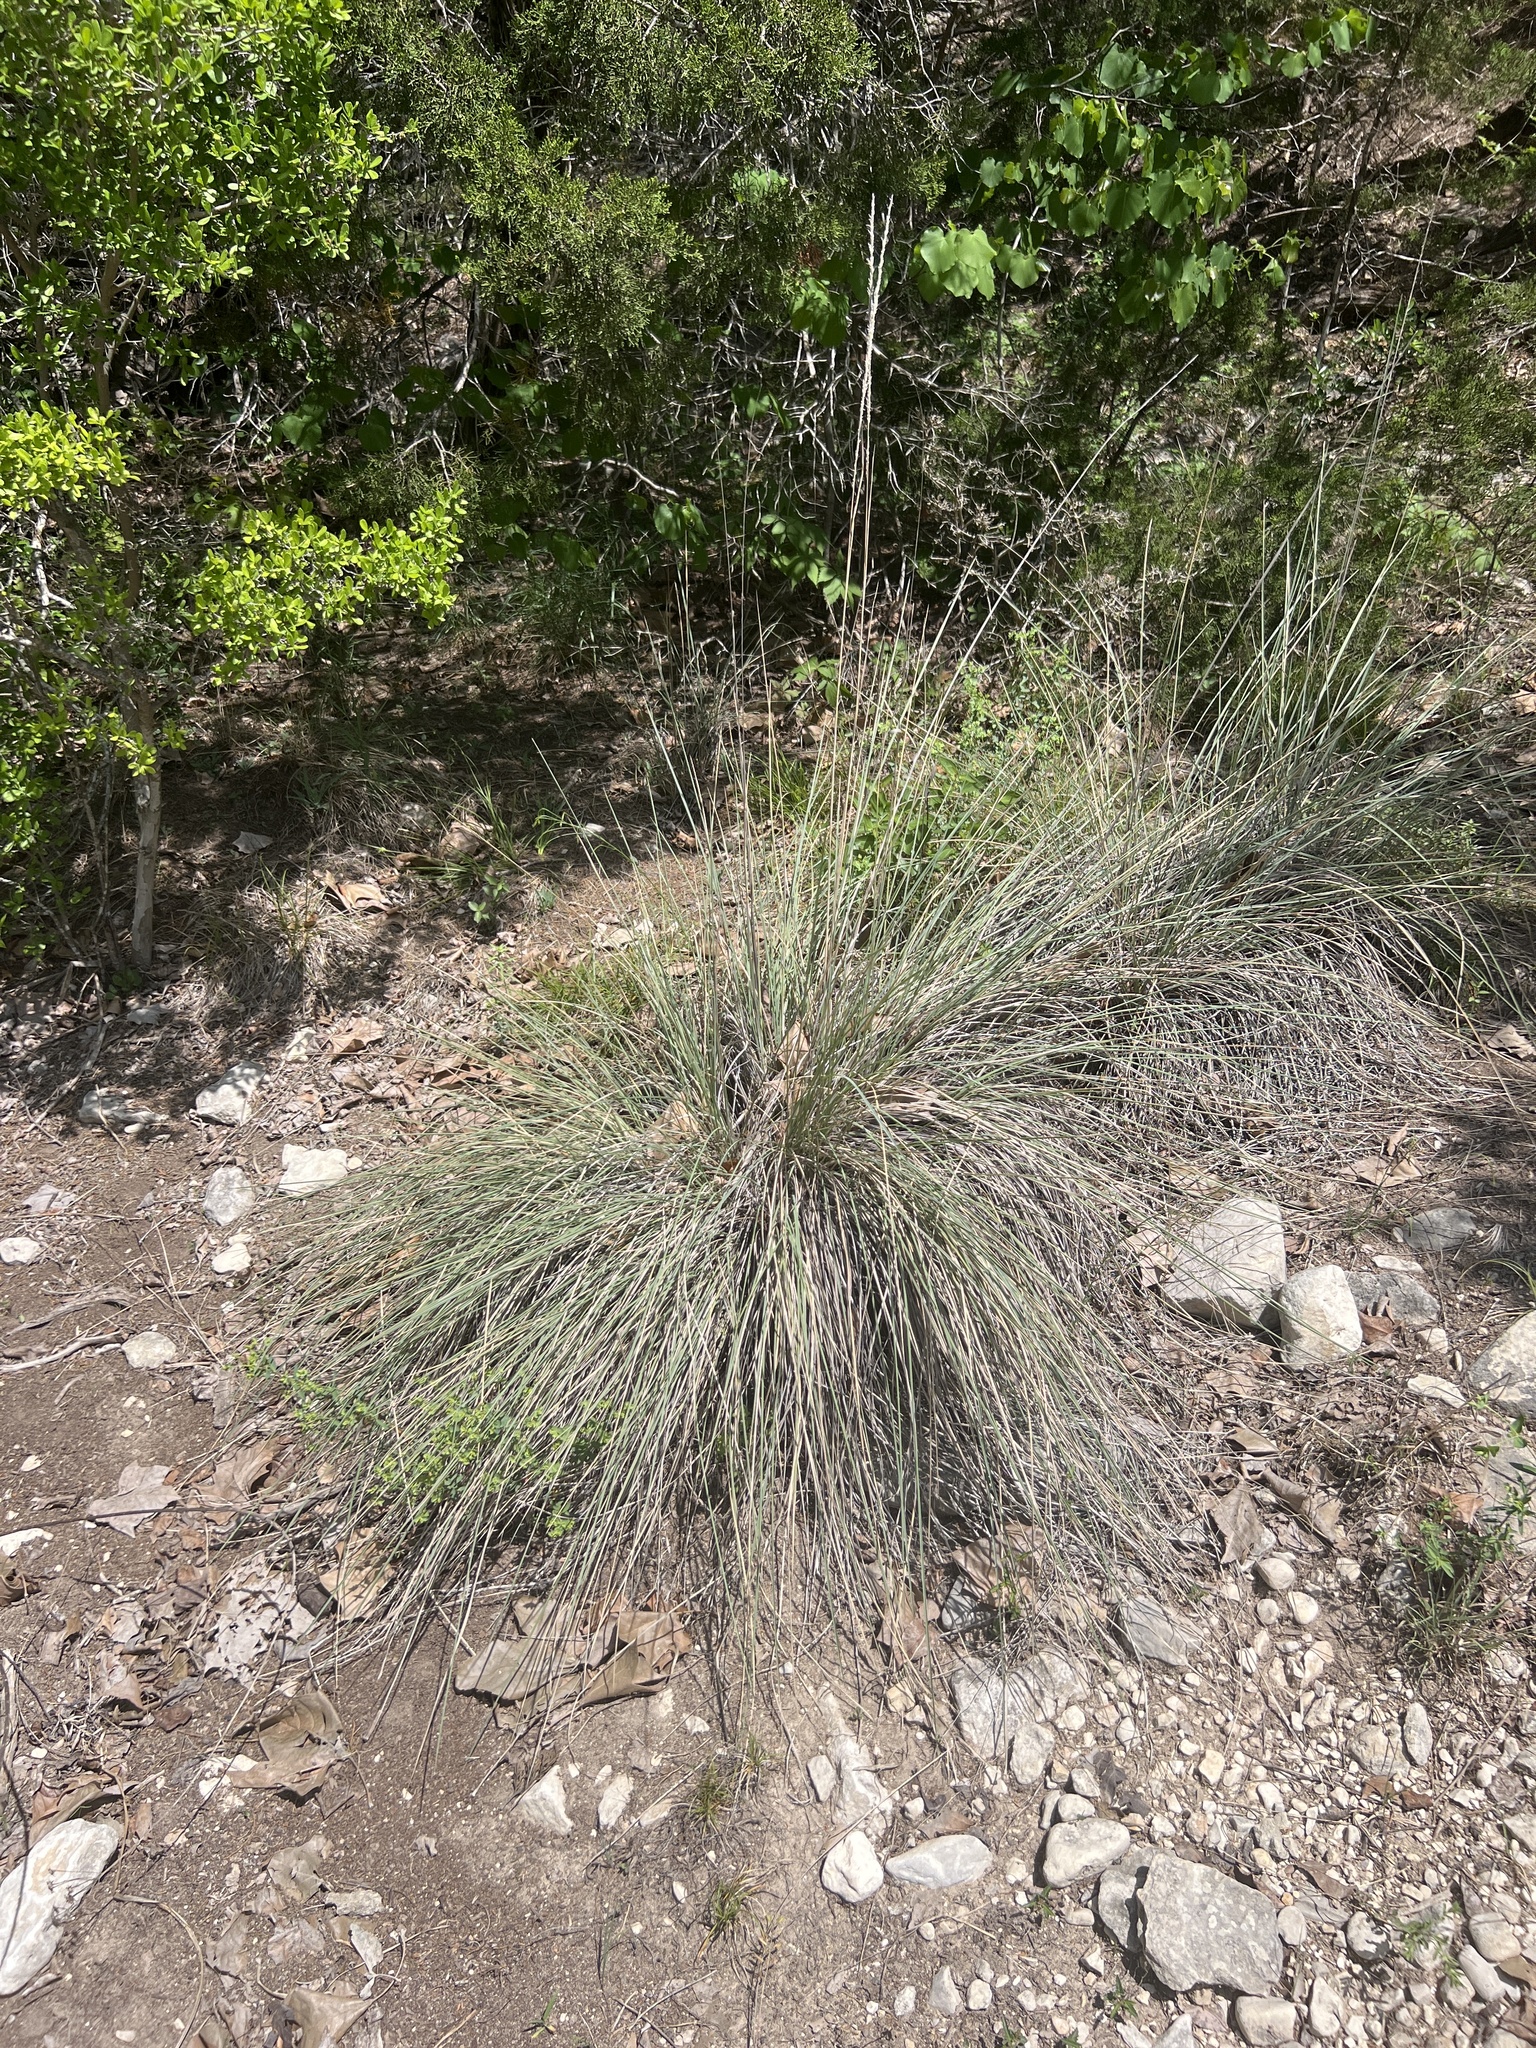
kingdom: Plantae
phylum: Tracheophyta
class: Liliopsida
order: Poales
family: Poaceae
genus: Muhlenbergia
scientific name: Muhlenbergia lindheimeri
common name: Lindheimer's muhly
